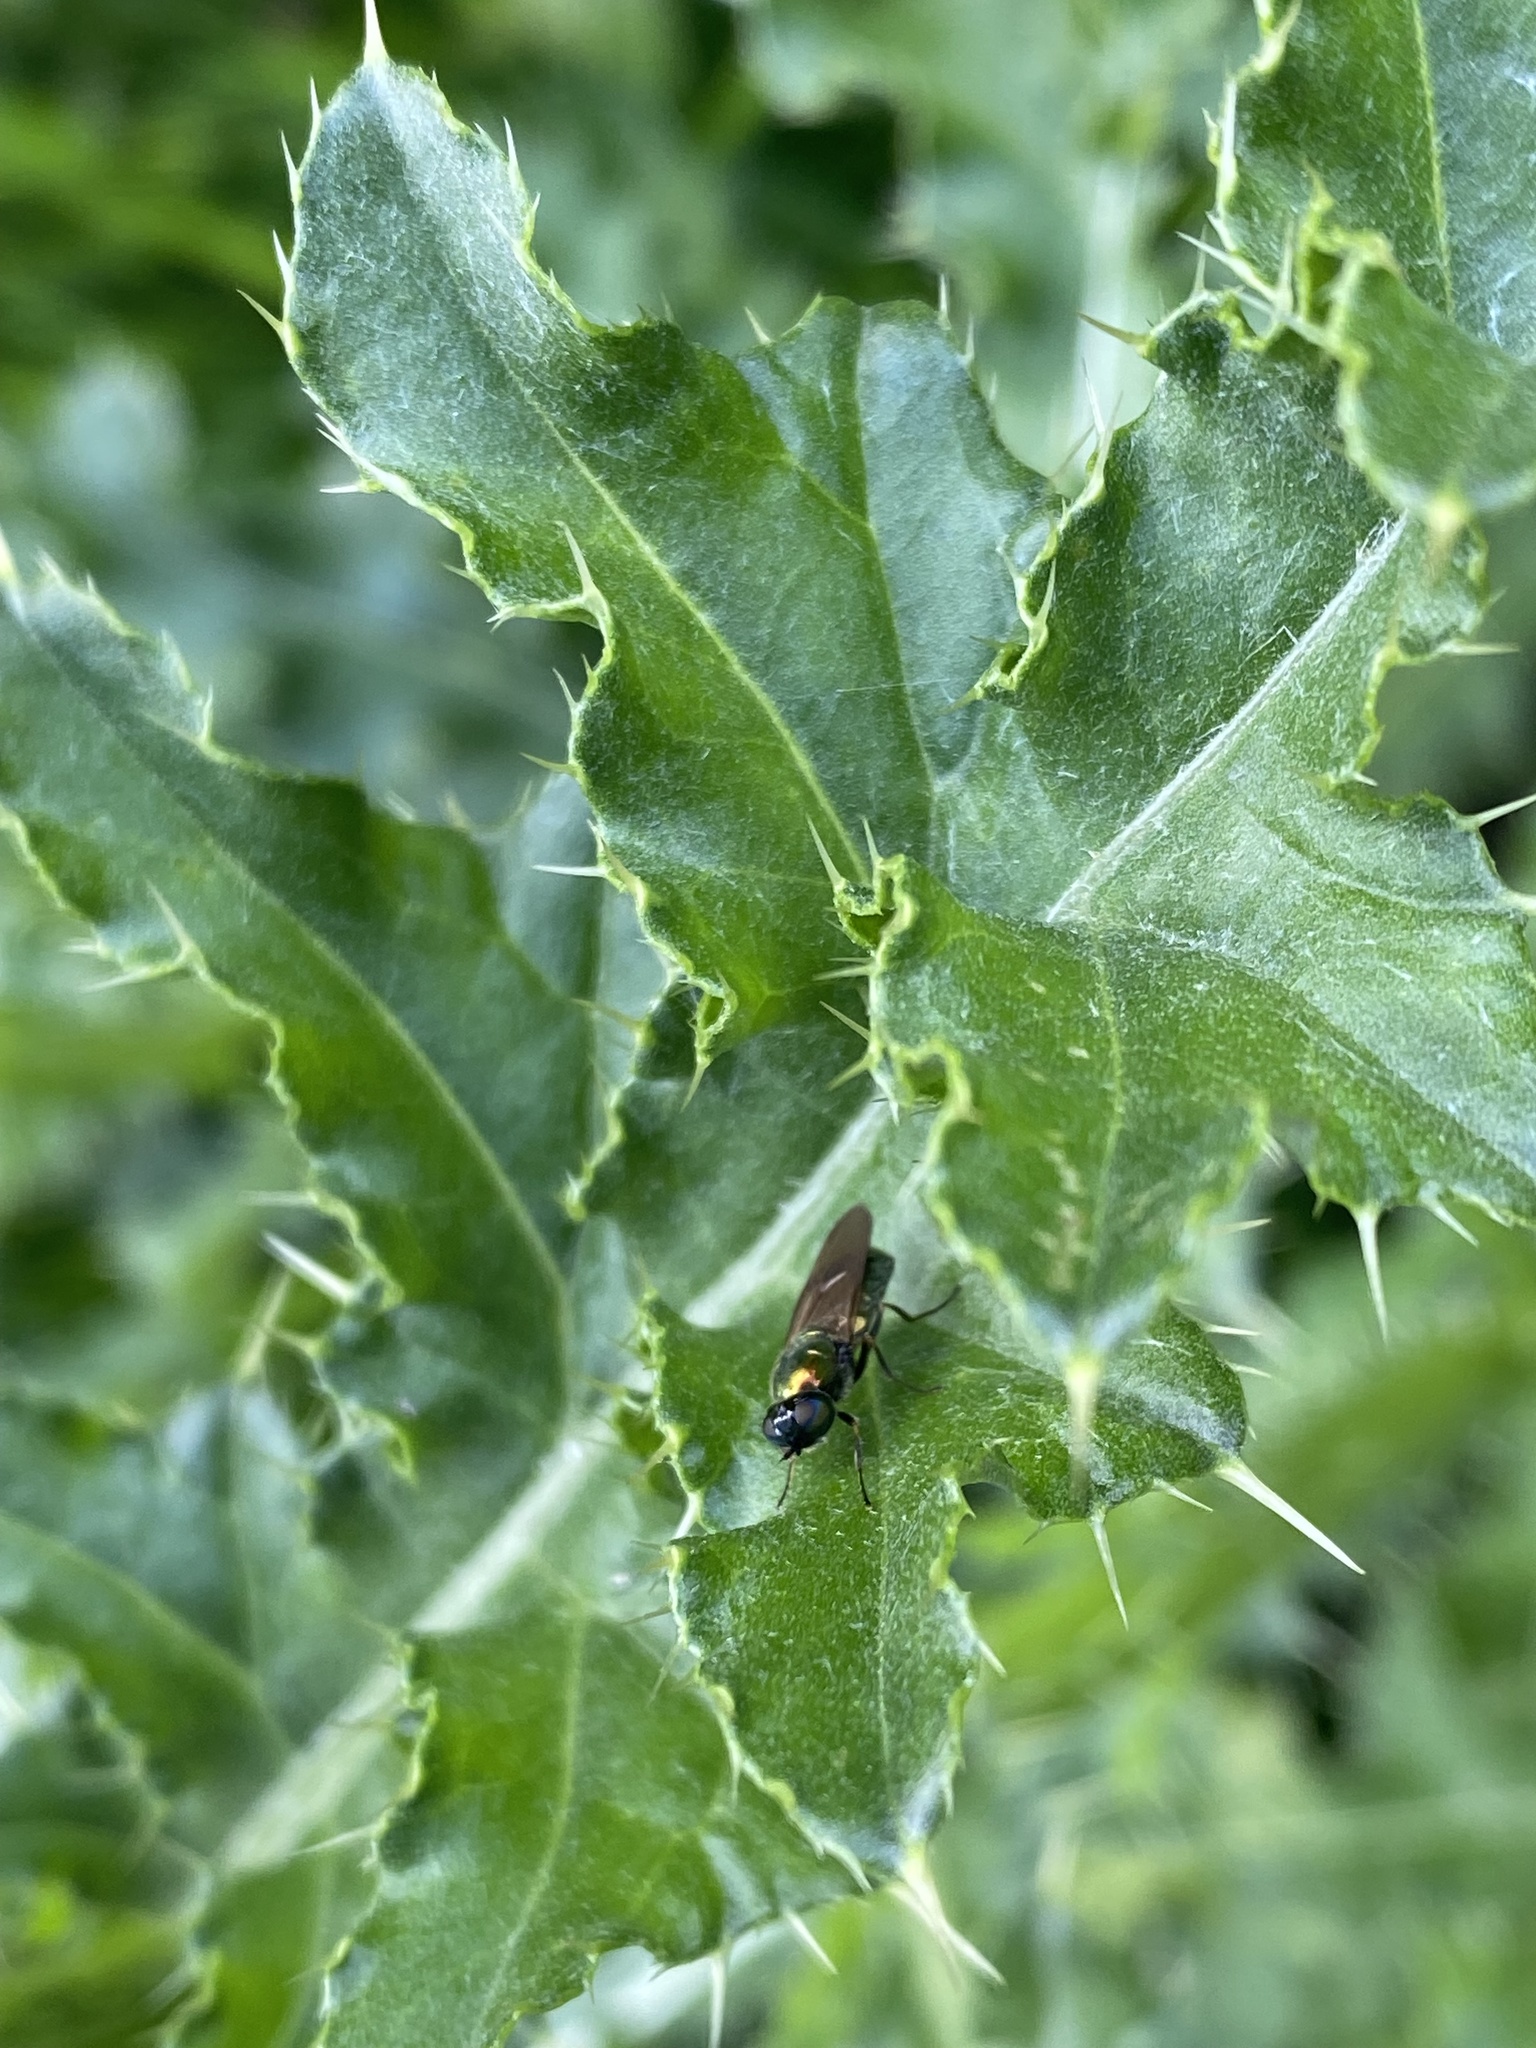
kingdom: Animalia
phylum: Arthropoda
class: Insecta
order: Diptera
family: Stratiomyidae
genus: Chloromyia
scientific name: Chloromyia formosa
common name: Soldier fly
